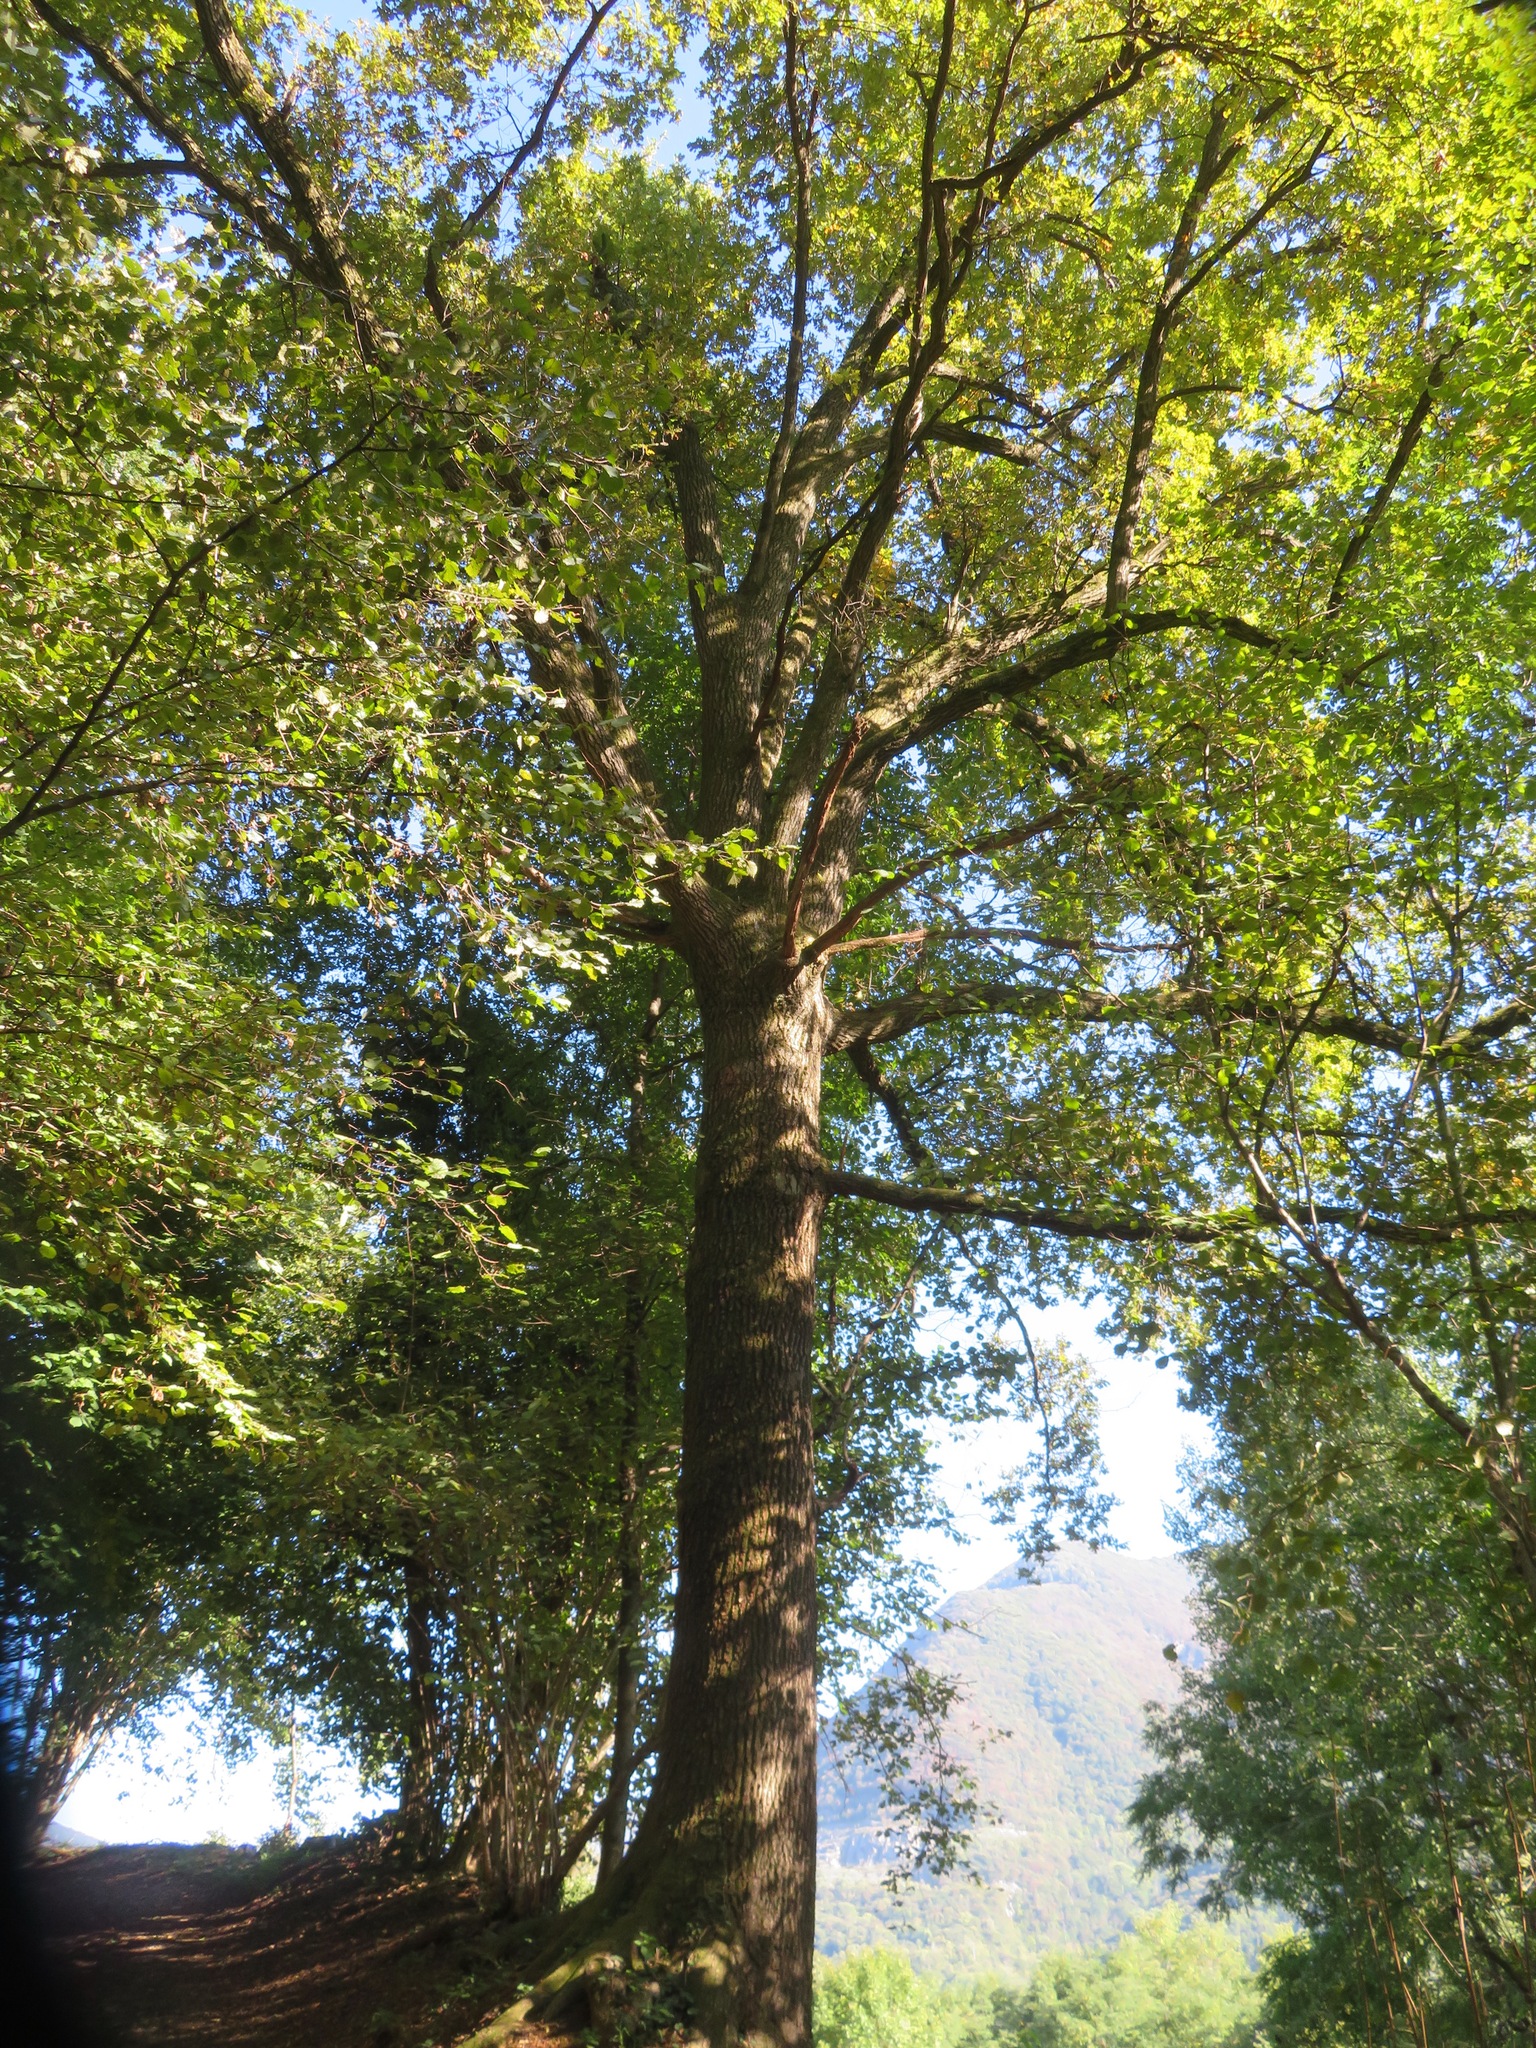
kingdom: Plantae
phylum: Tracheophyta
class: Magnoliopsida
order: Fagales
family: Fagaceae
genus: Quercus
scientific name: Quercus robur
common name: Pedunculate oak
